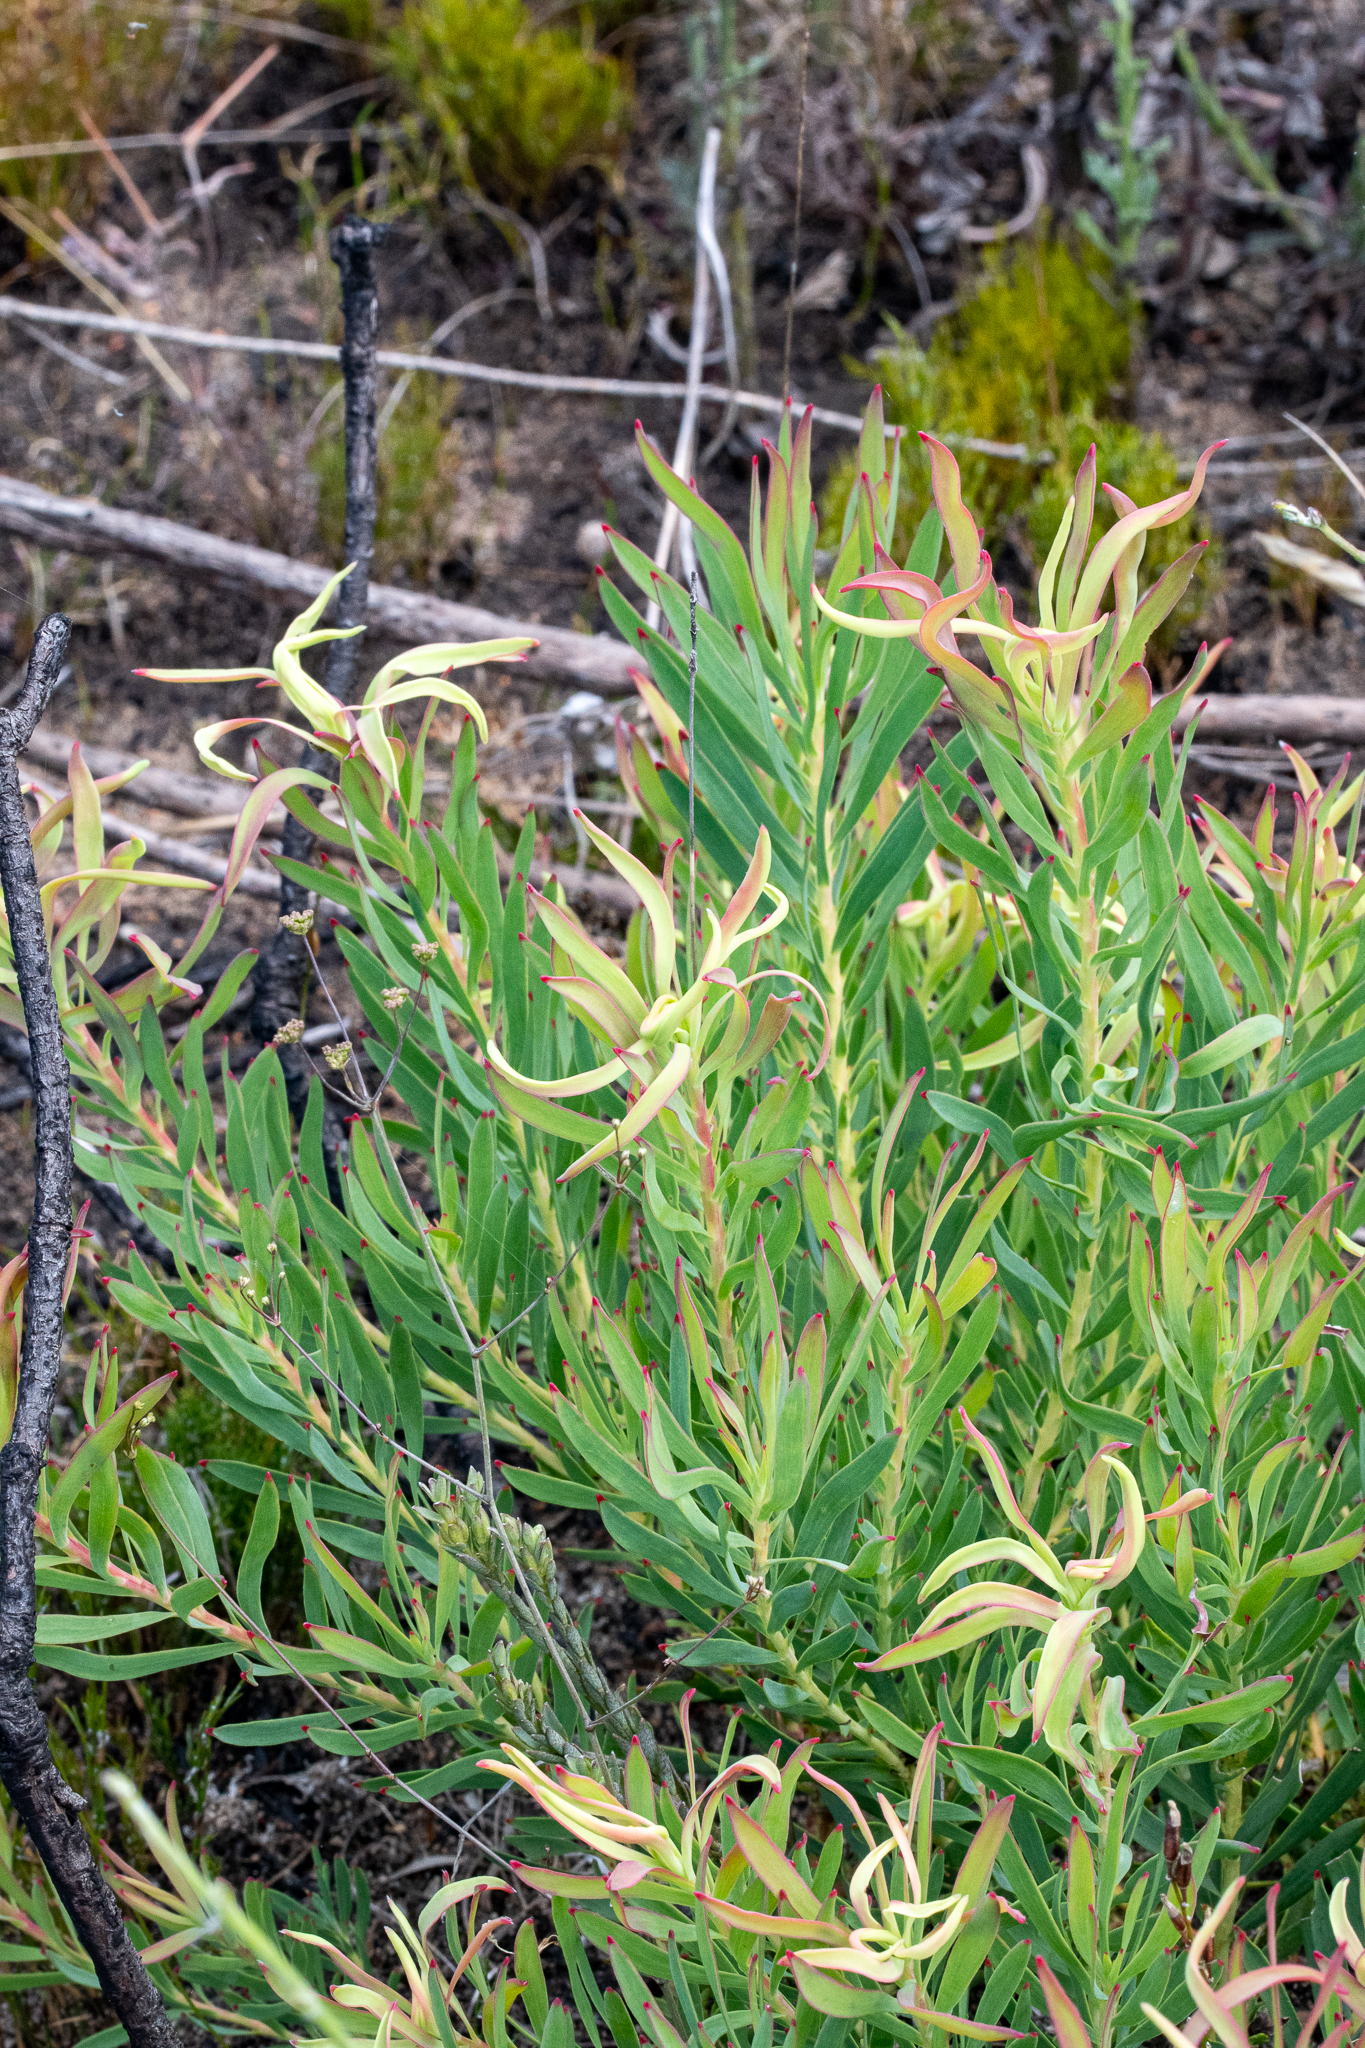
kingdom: Plantae
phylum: Tracheophyta
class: Magnoliopsida
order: Proteales
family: Proteaceae
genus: Leucadendron
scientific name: Leucadendron salignum
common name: Common sunshine conebush
